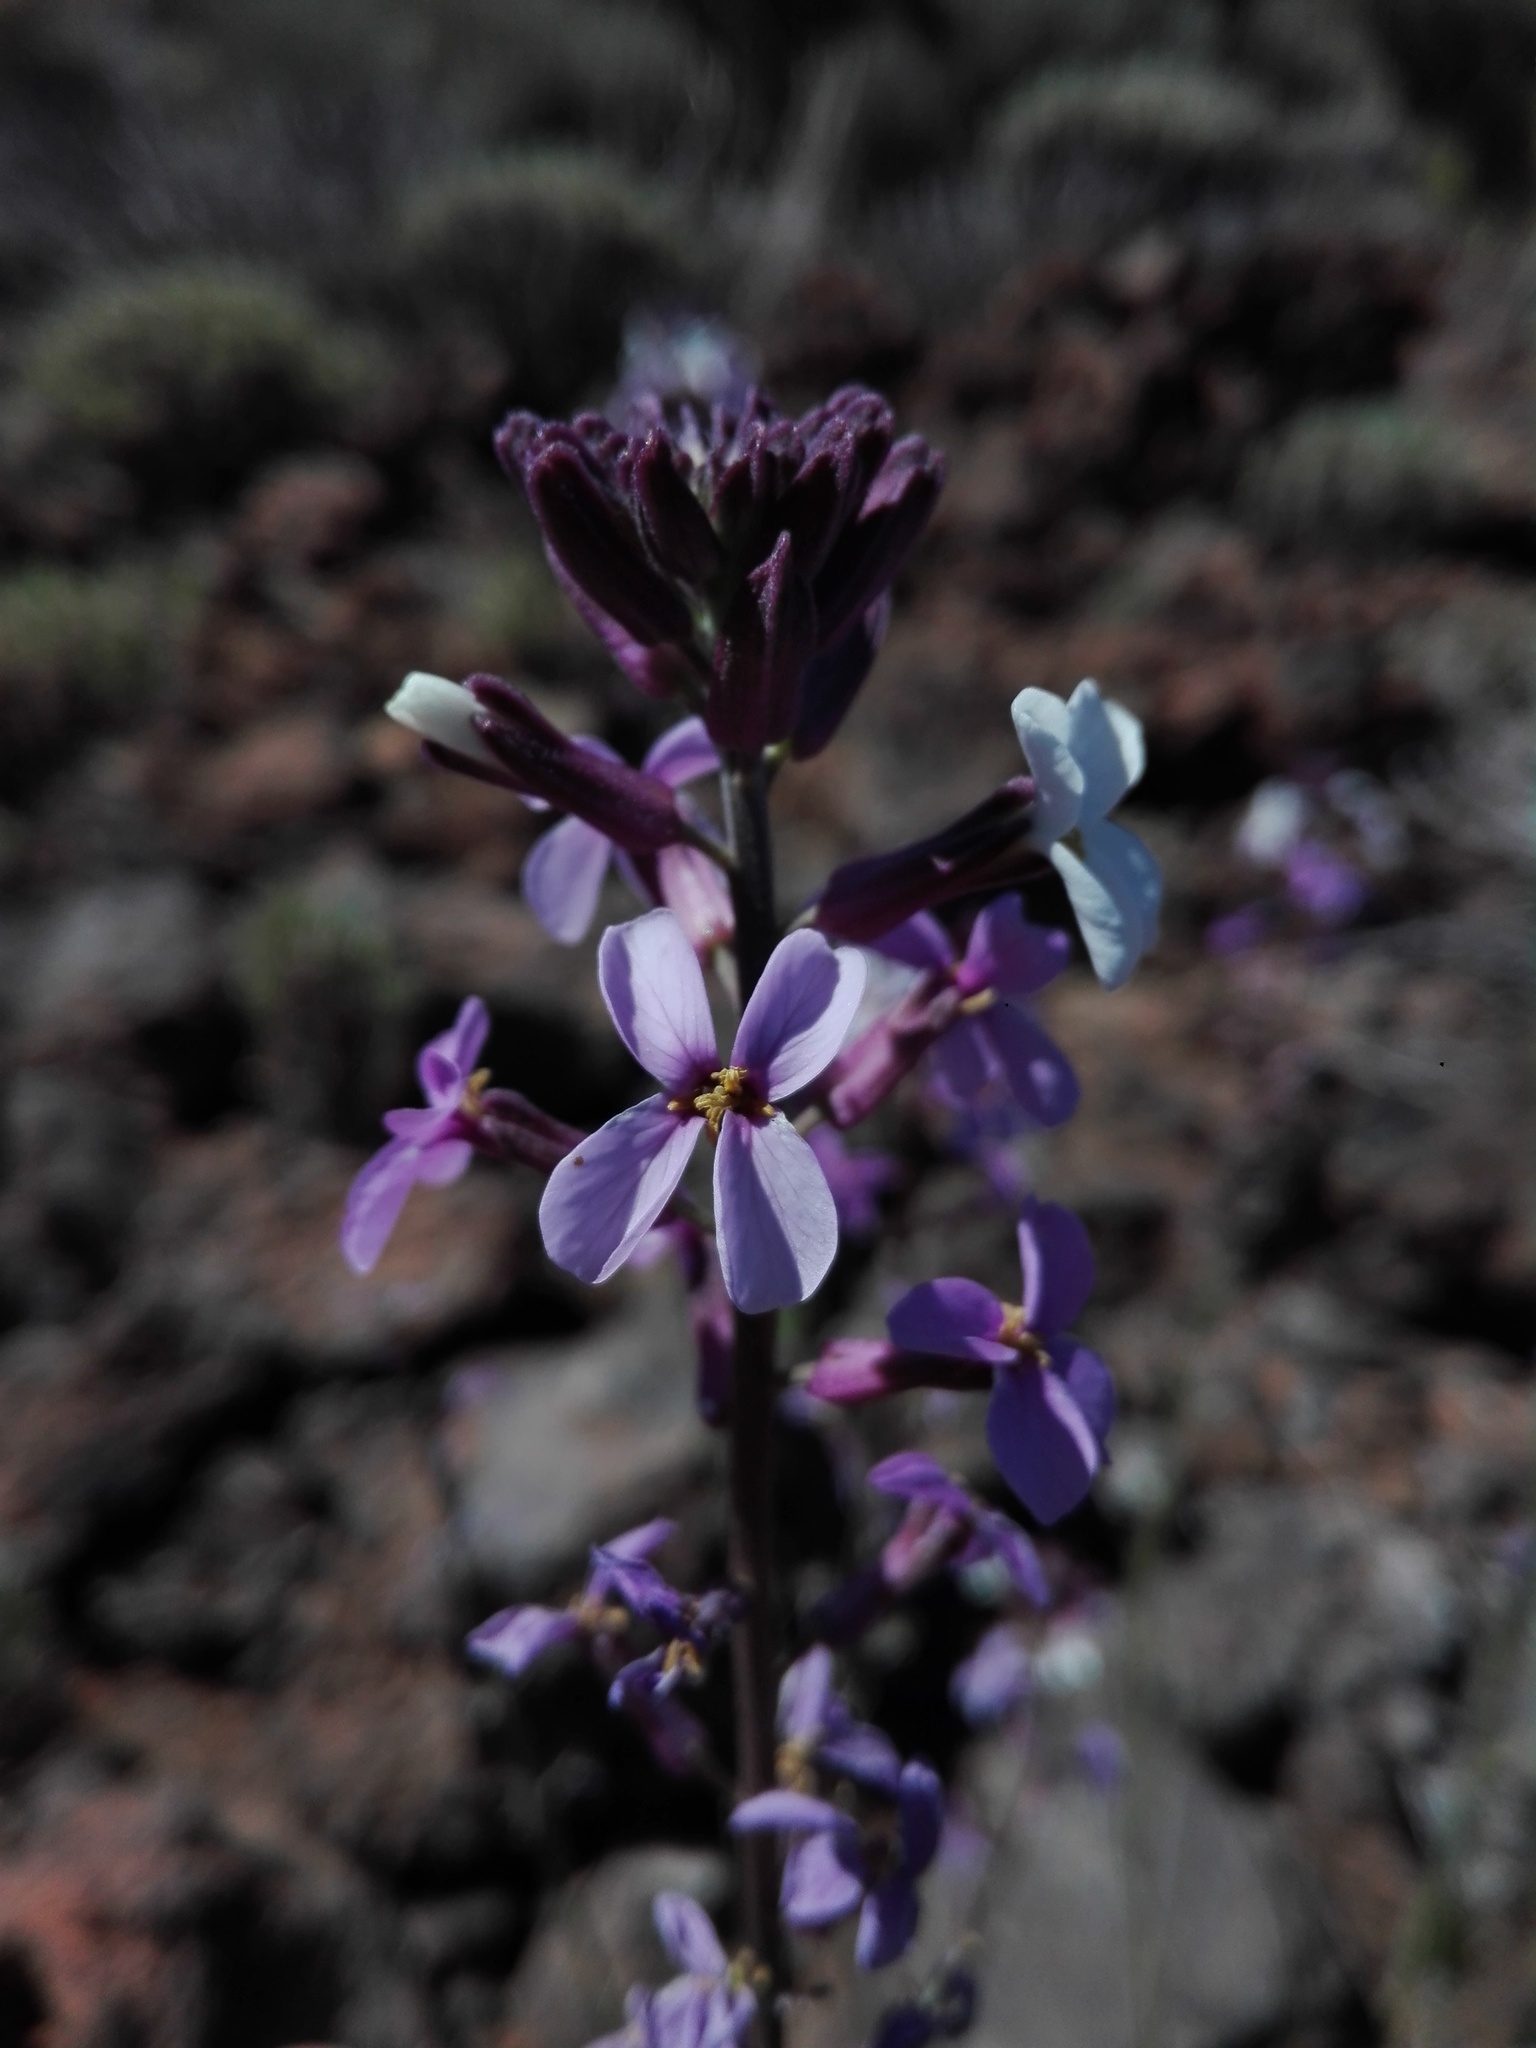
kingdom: Plantae
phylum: Tracheophyta
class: Magnoliopsida
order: Brassicales
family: Brassicaceae
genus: Erysimum
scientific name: Erysimum scoparium
